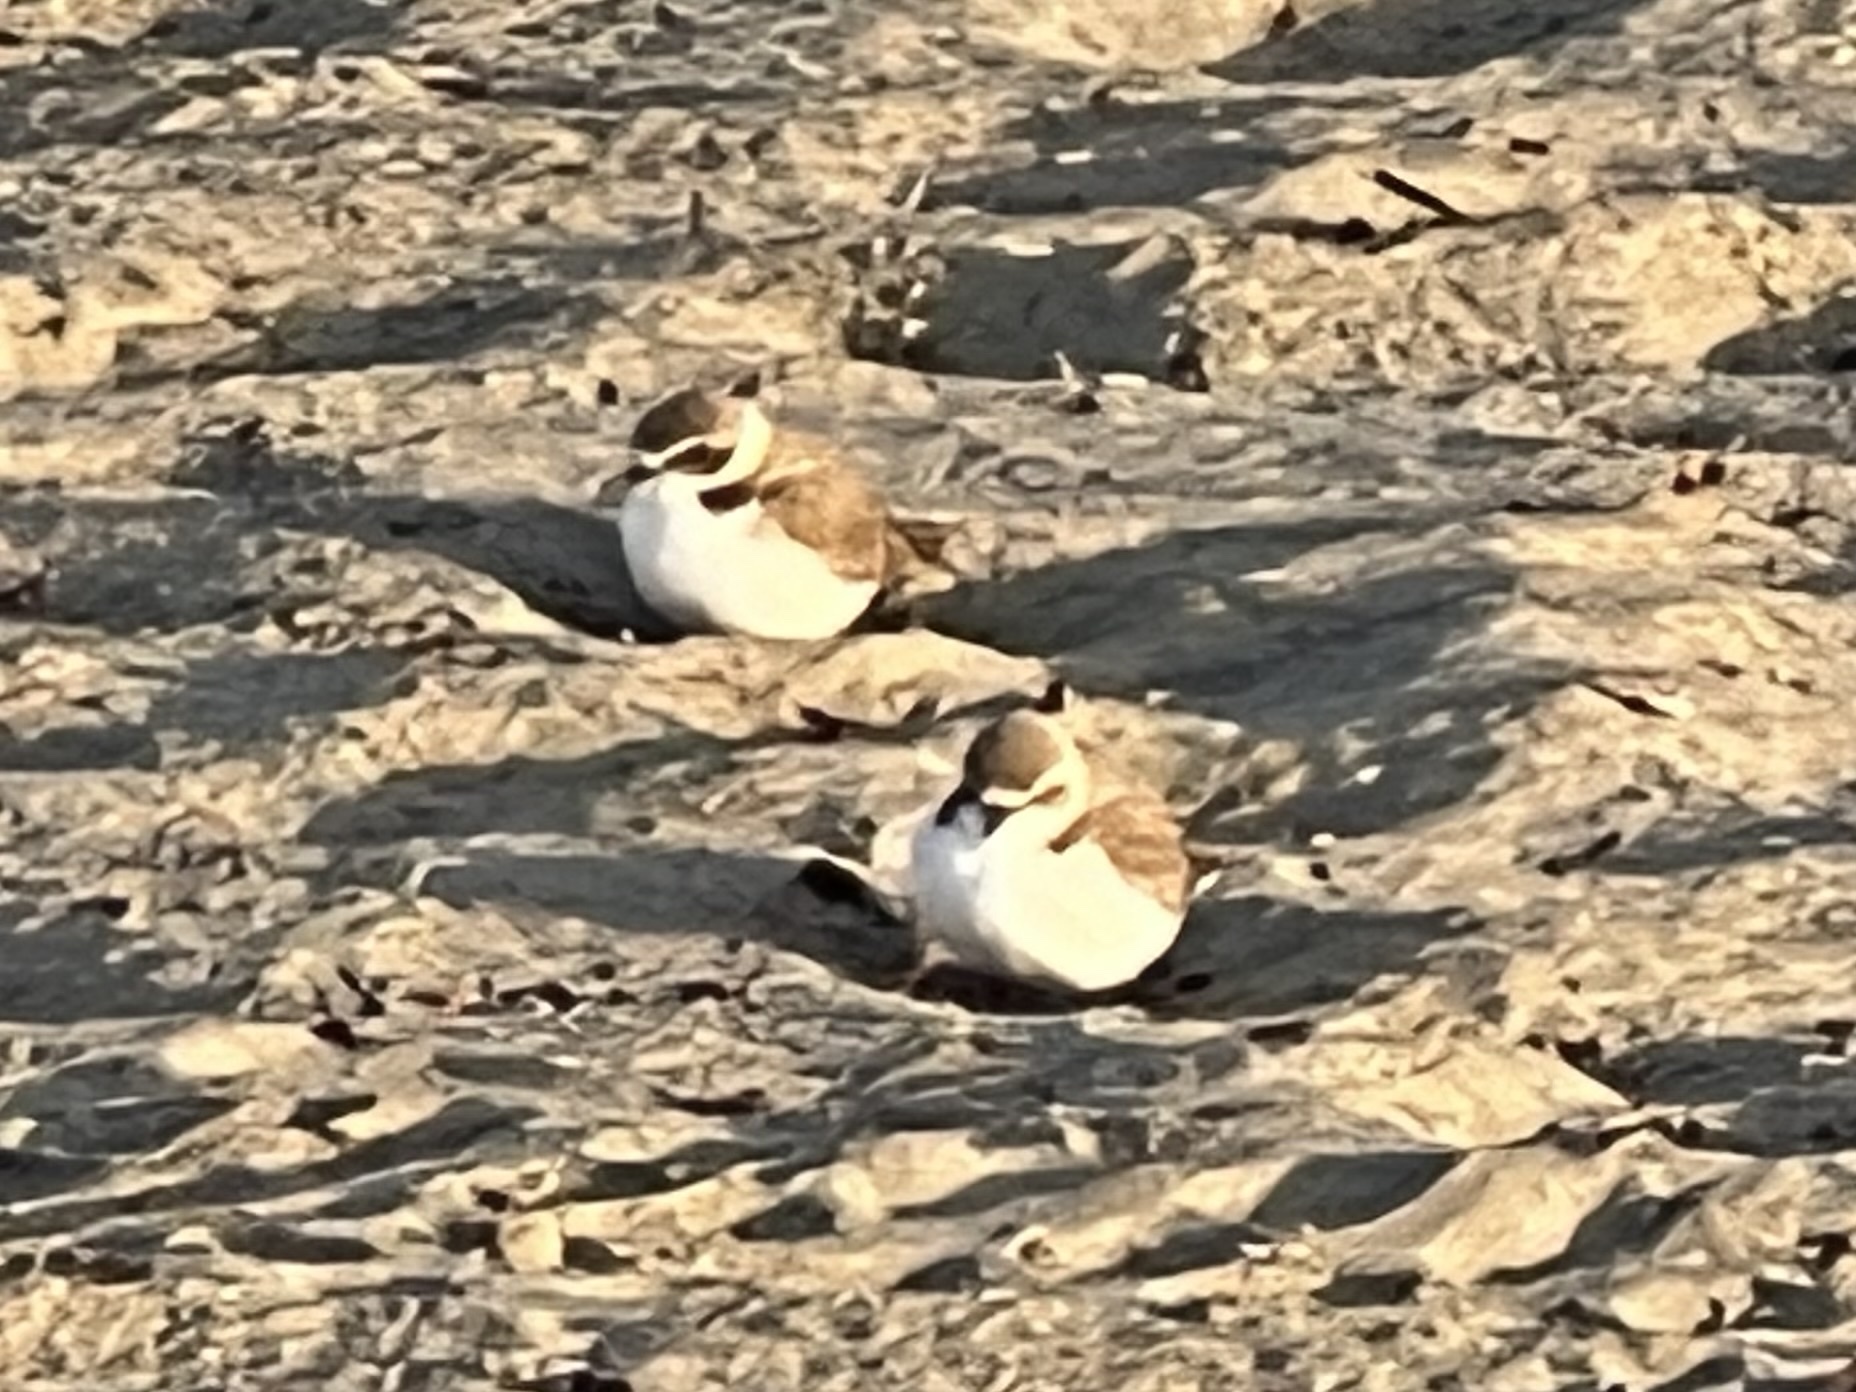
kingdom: Animalia
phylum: Chordata
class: Aves
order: Charadriiformes
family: Charadriidae
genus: Anarhynchus
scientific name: Anarhynchus
